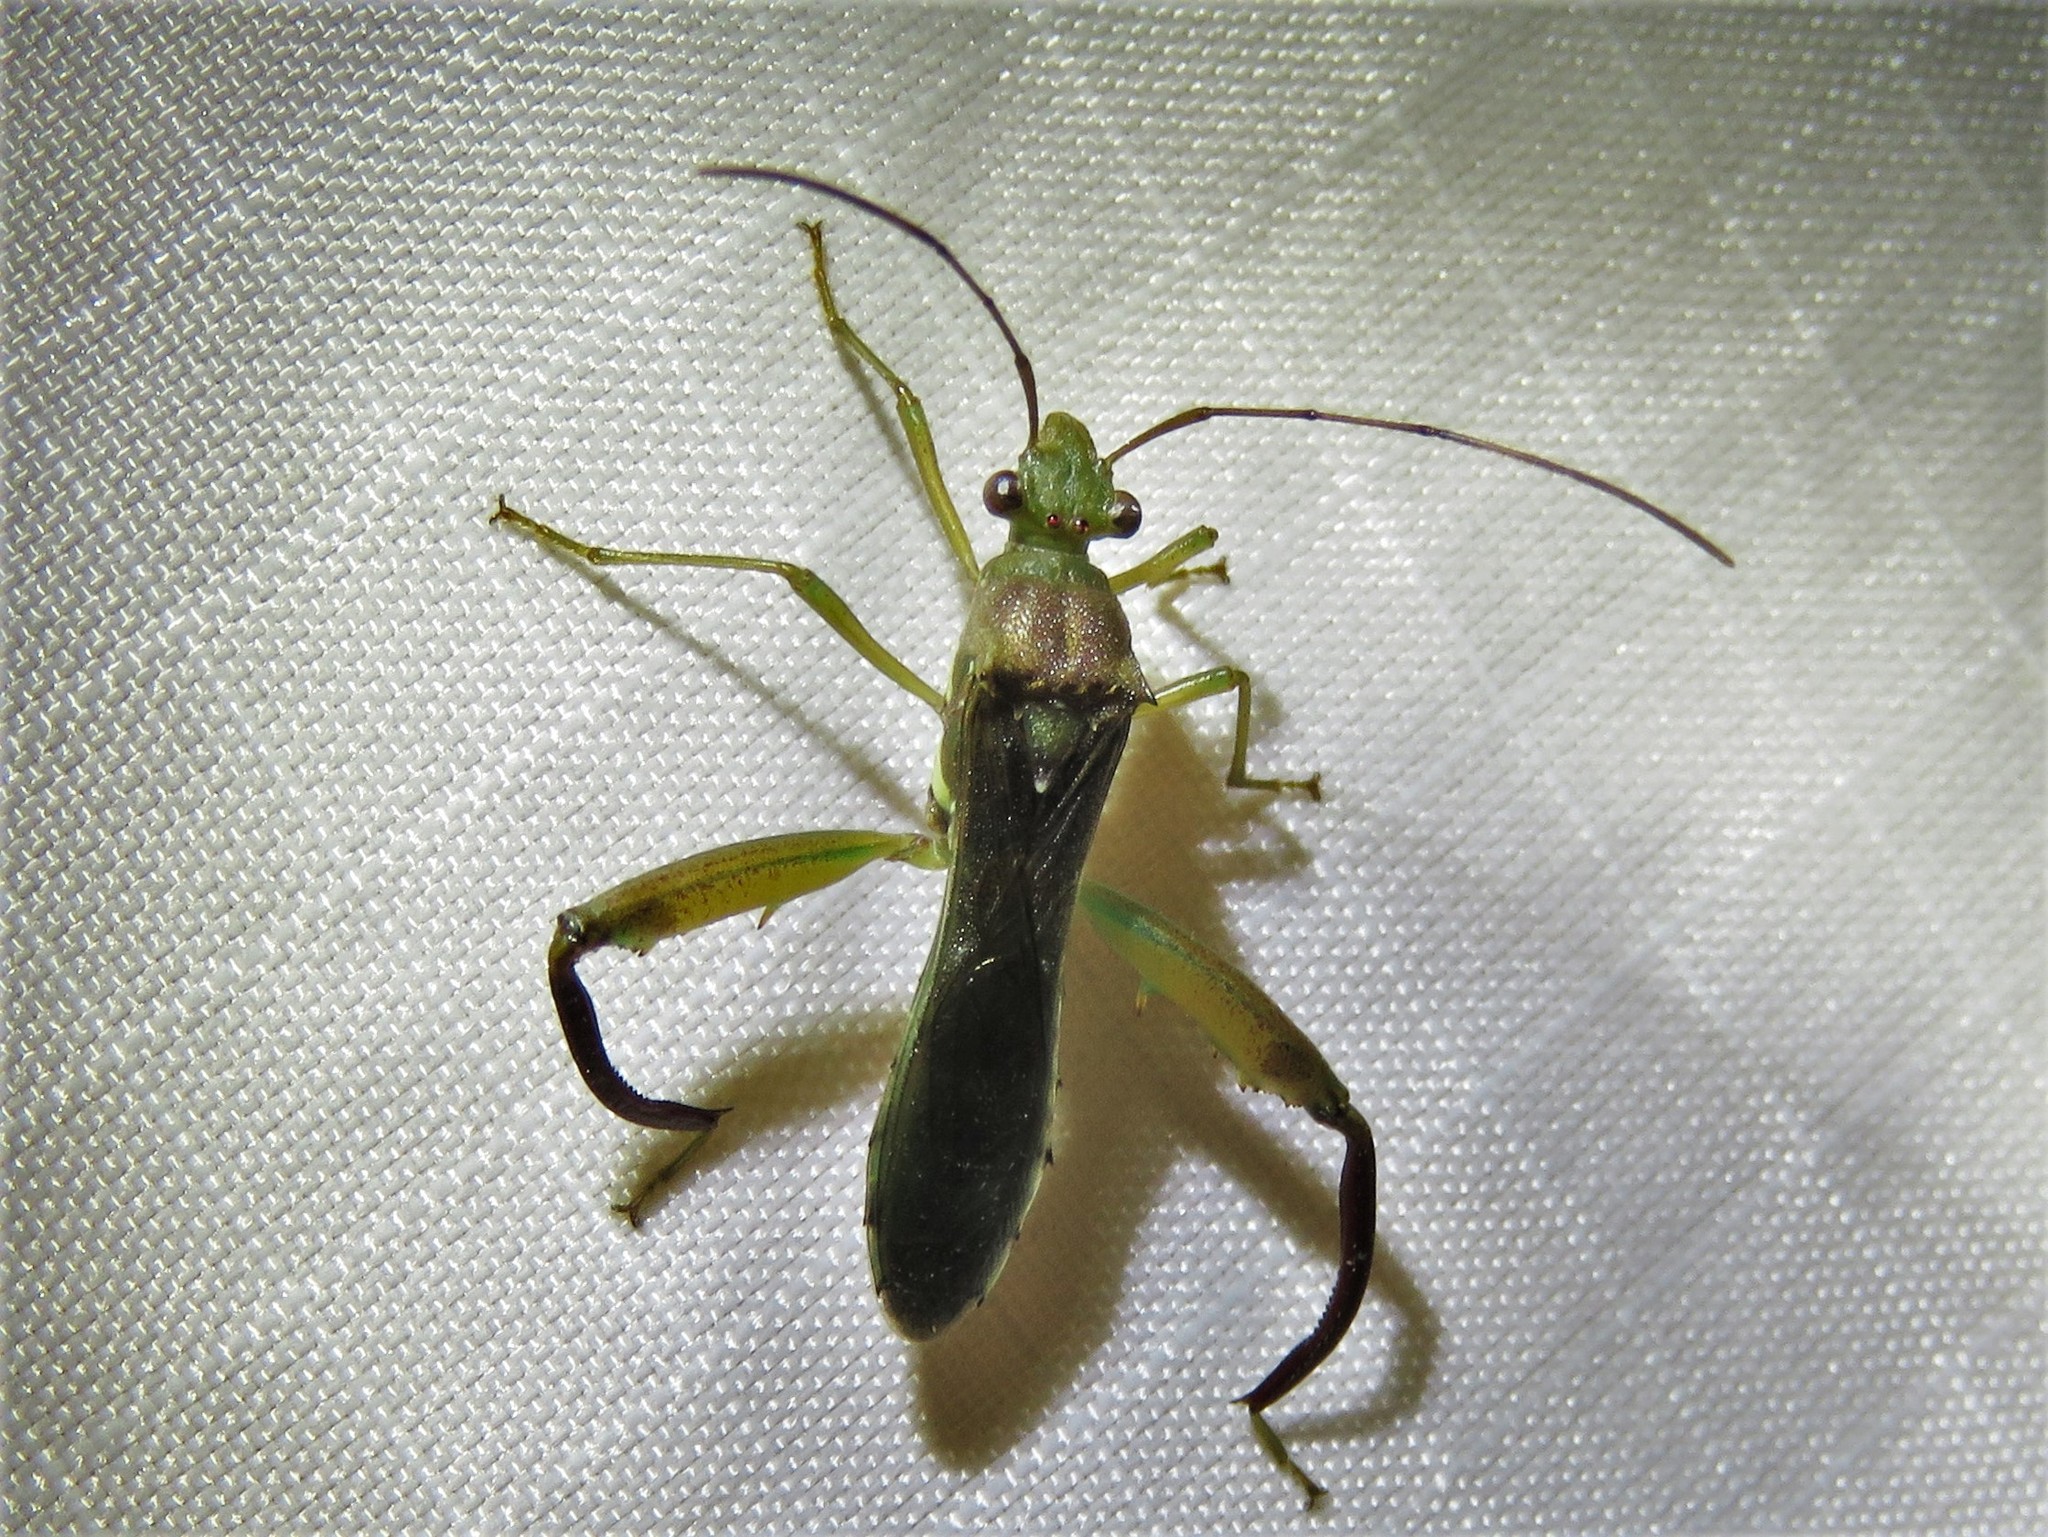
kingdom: Animalia
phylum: Arthropoda
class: Insecta
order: Hemiptera
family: Alydidae
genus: Hyalymenus
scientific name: Hyalymenus tarsatus
